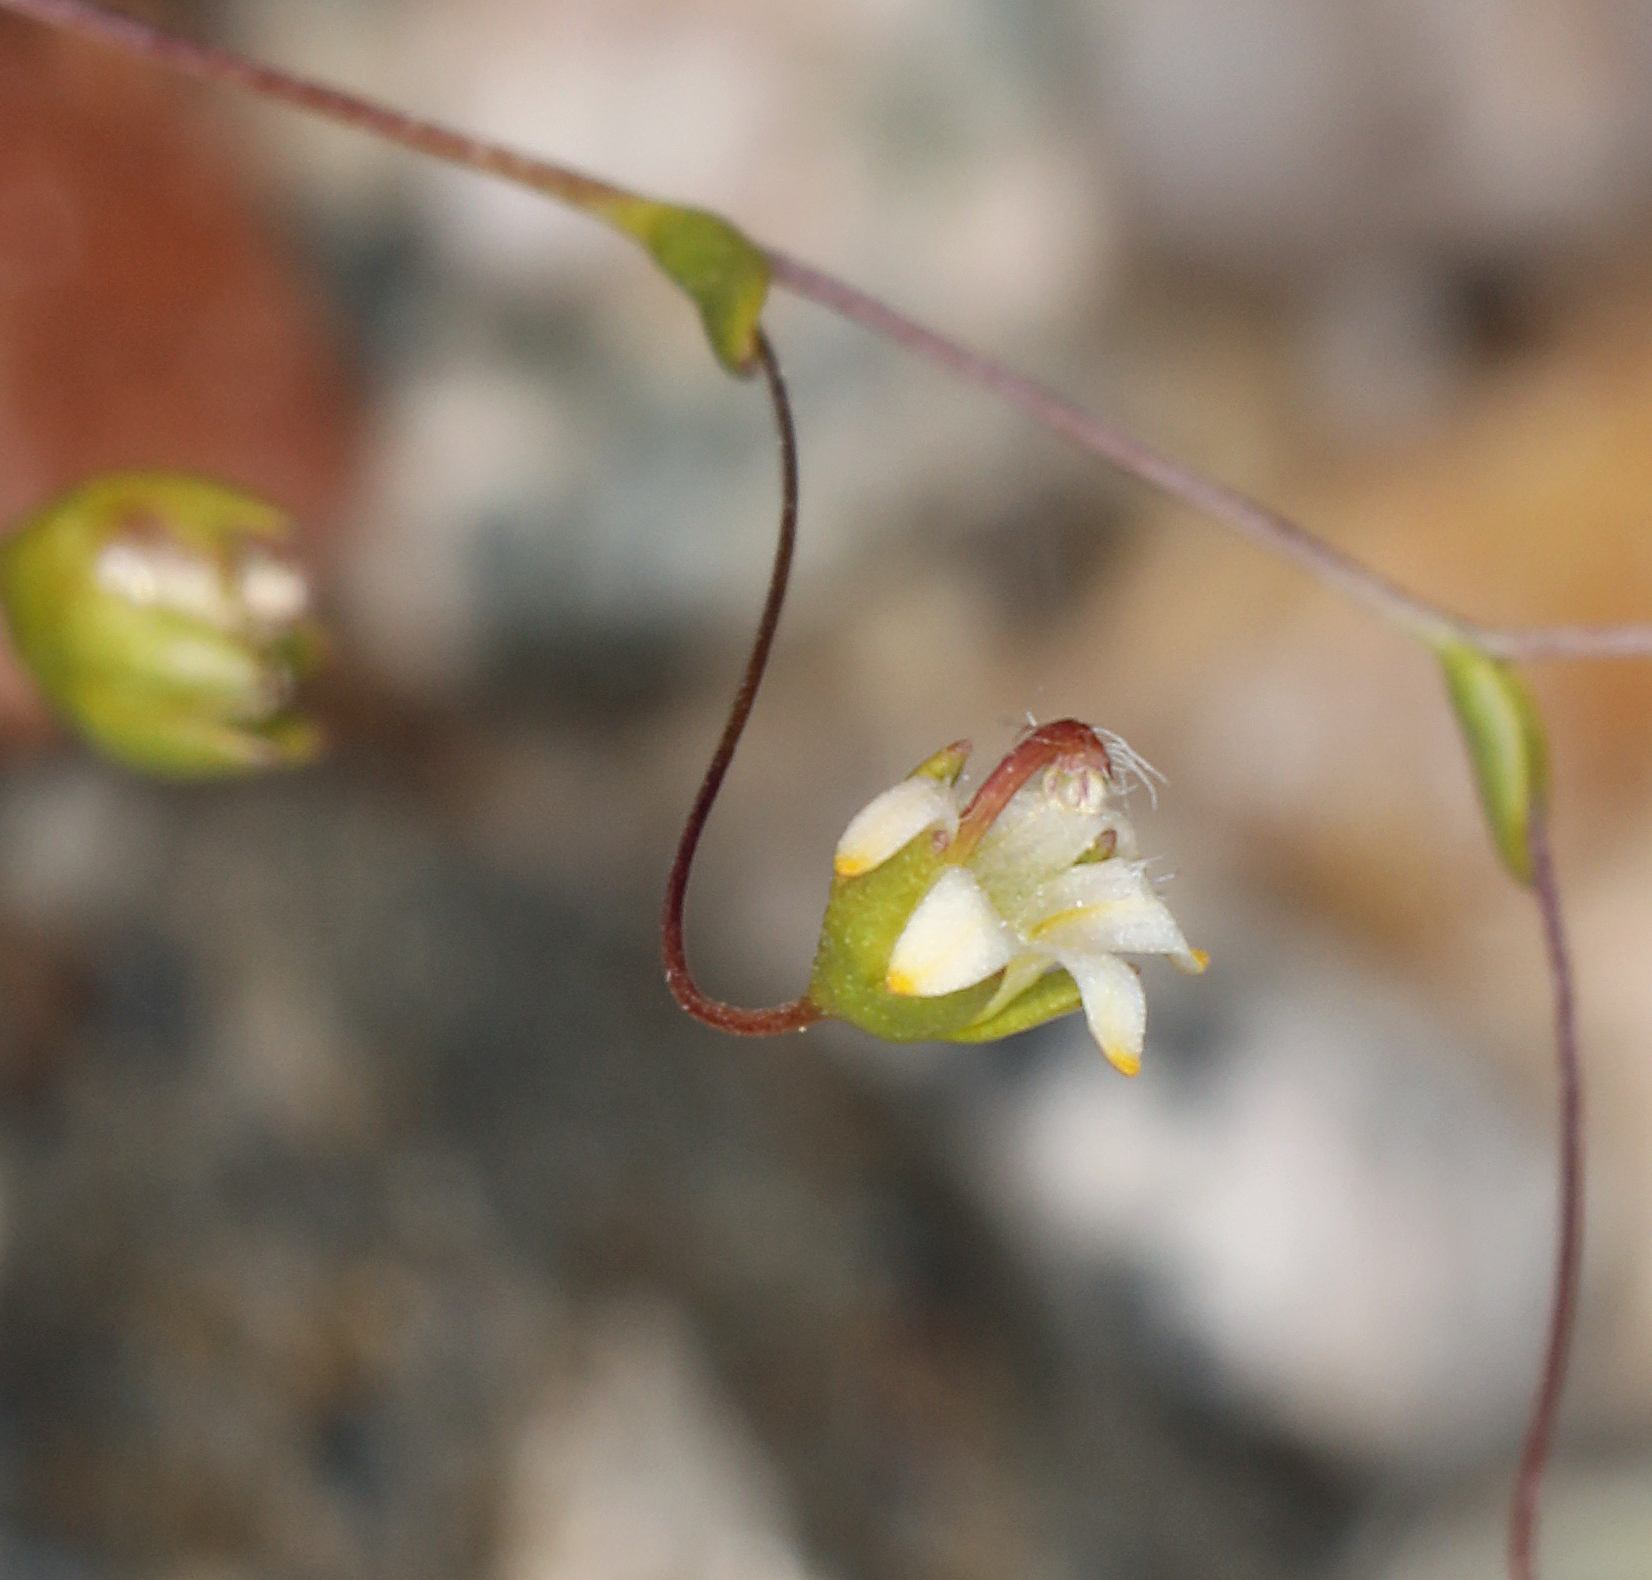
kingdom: Plantae
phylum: Tracheophyta
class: Magnoliopsida
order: Asterales
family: Campanulaceae
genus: Nemacladus
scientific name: Nemacladus eastwoodiae
